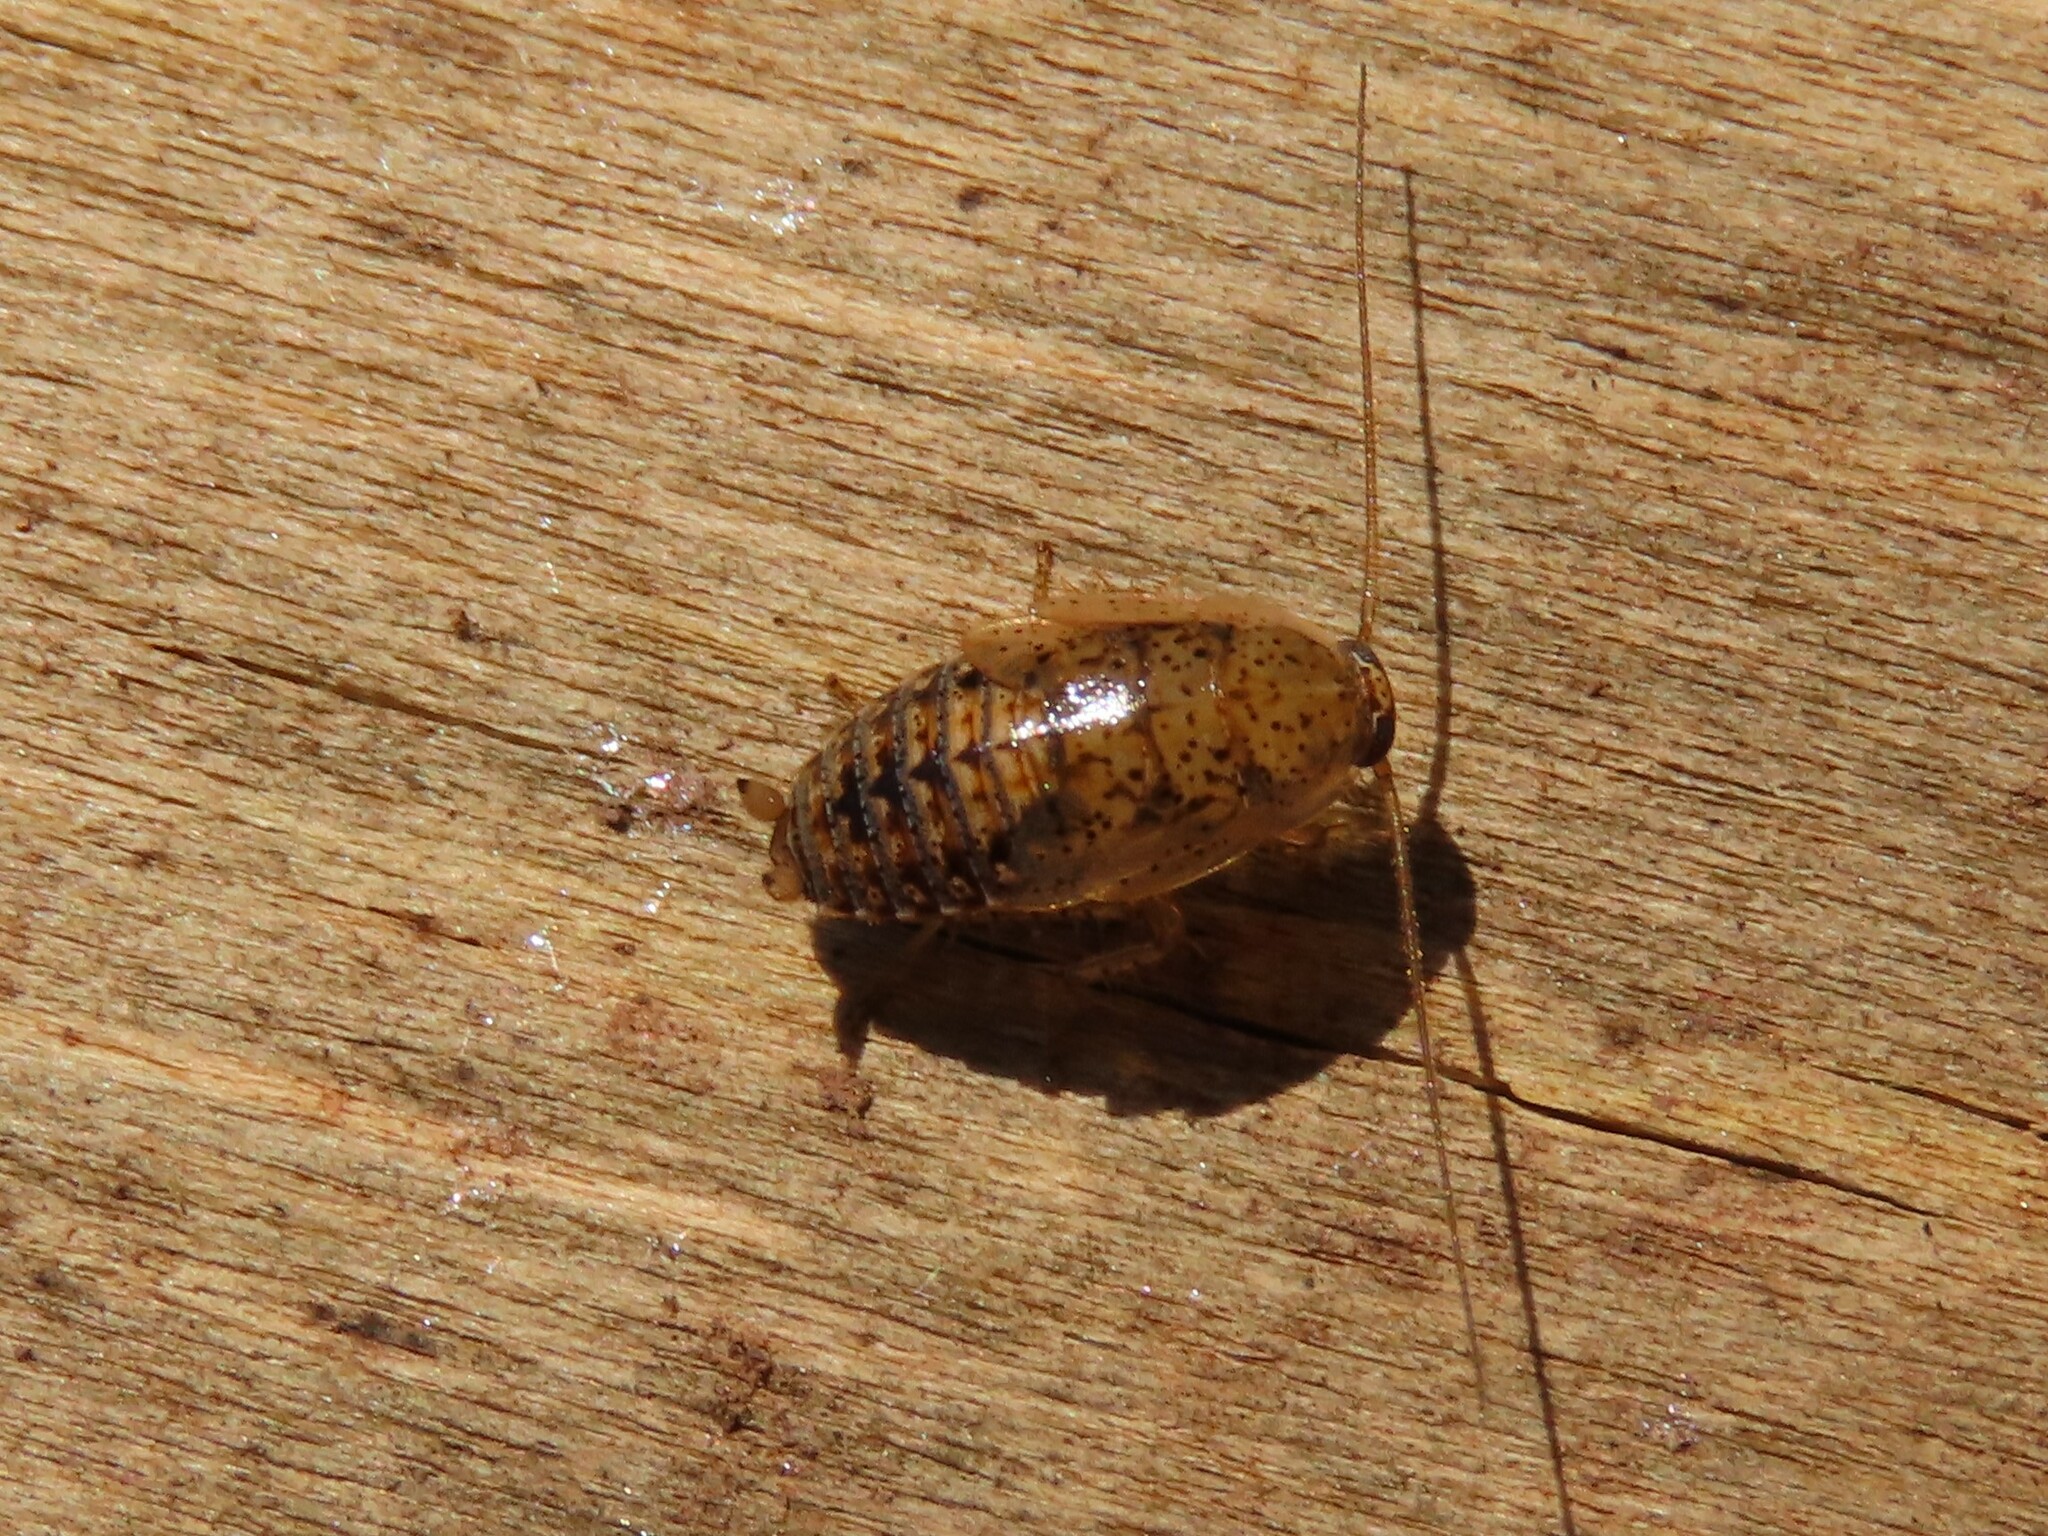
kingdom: Animalia
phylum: Arthropoda
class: Insecta
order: Blattodea
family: Ectobiidae
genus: Ectobius
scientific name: Ectobius pallidus
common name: Tawny cockroach
